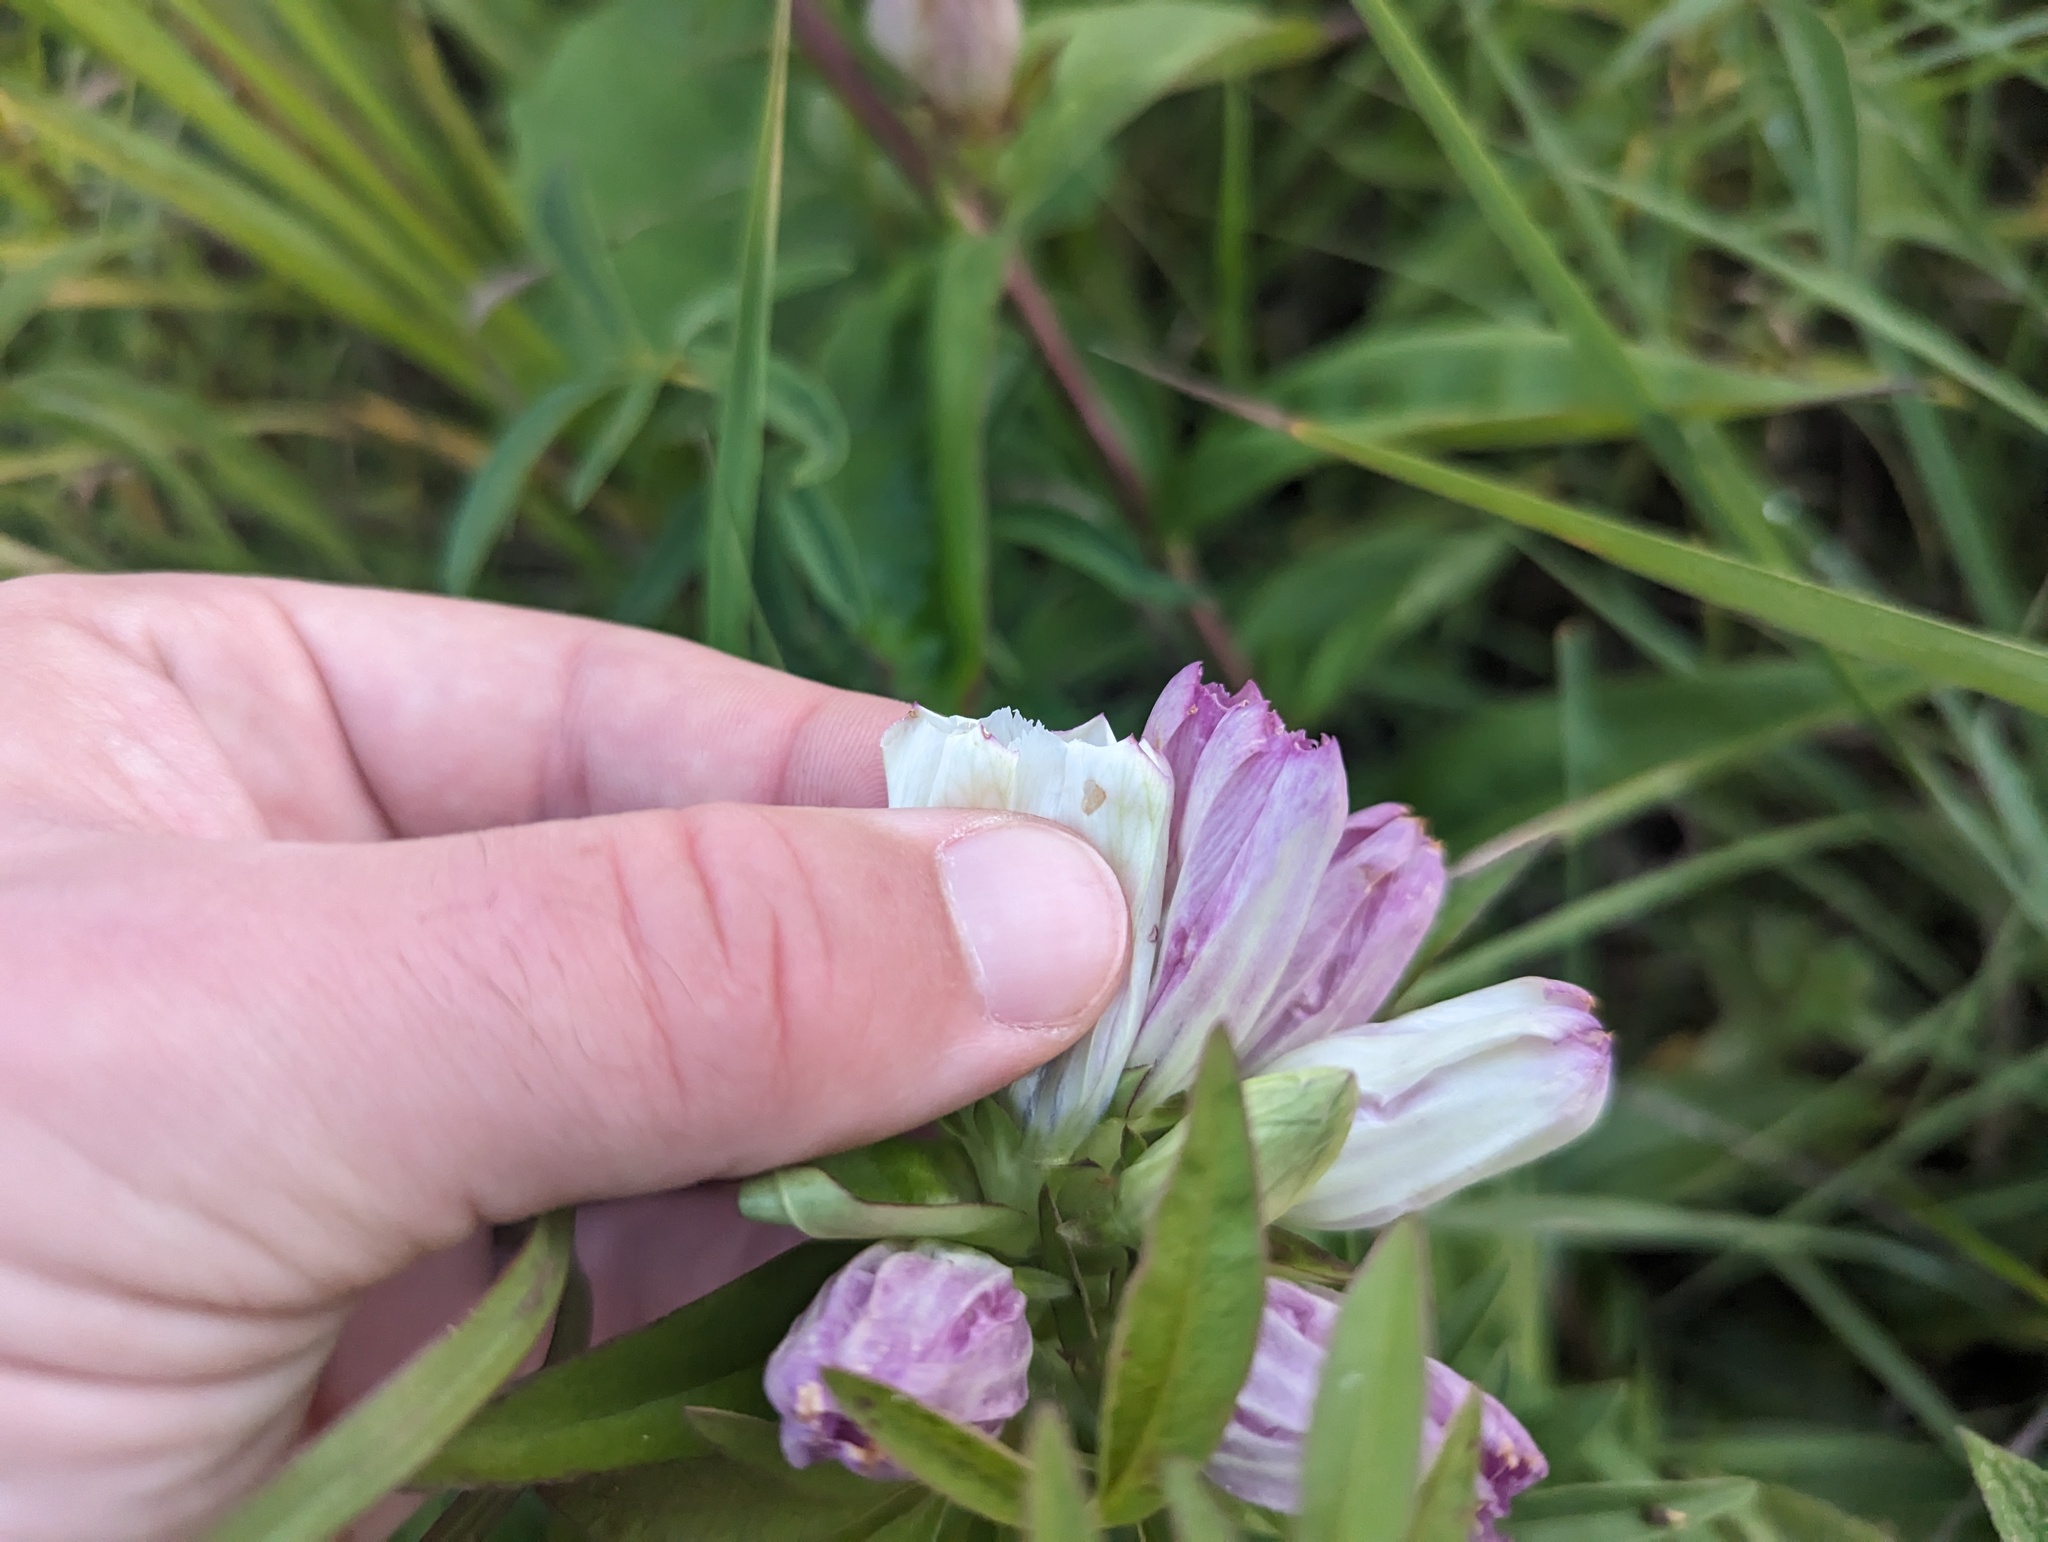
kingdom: Plantae
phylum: Tracheophyta
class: Magnoliopsida
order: Gentianales
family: Gentianaceae
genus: Gentiana
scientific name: Gentiana curtisii
